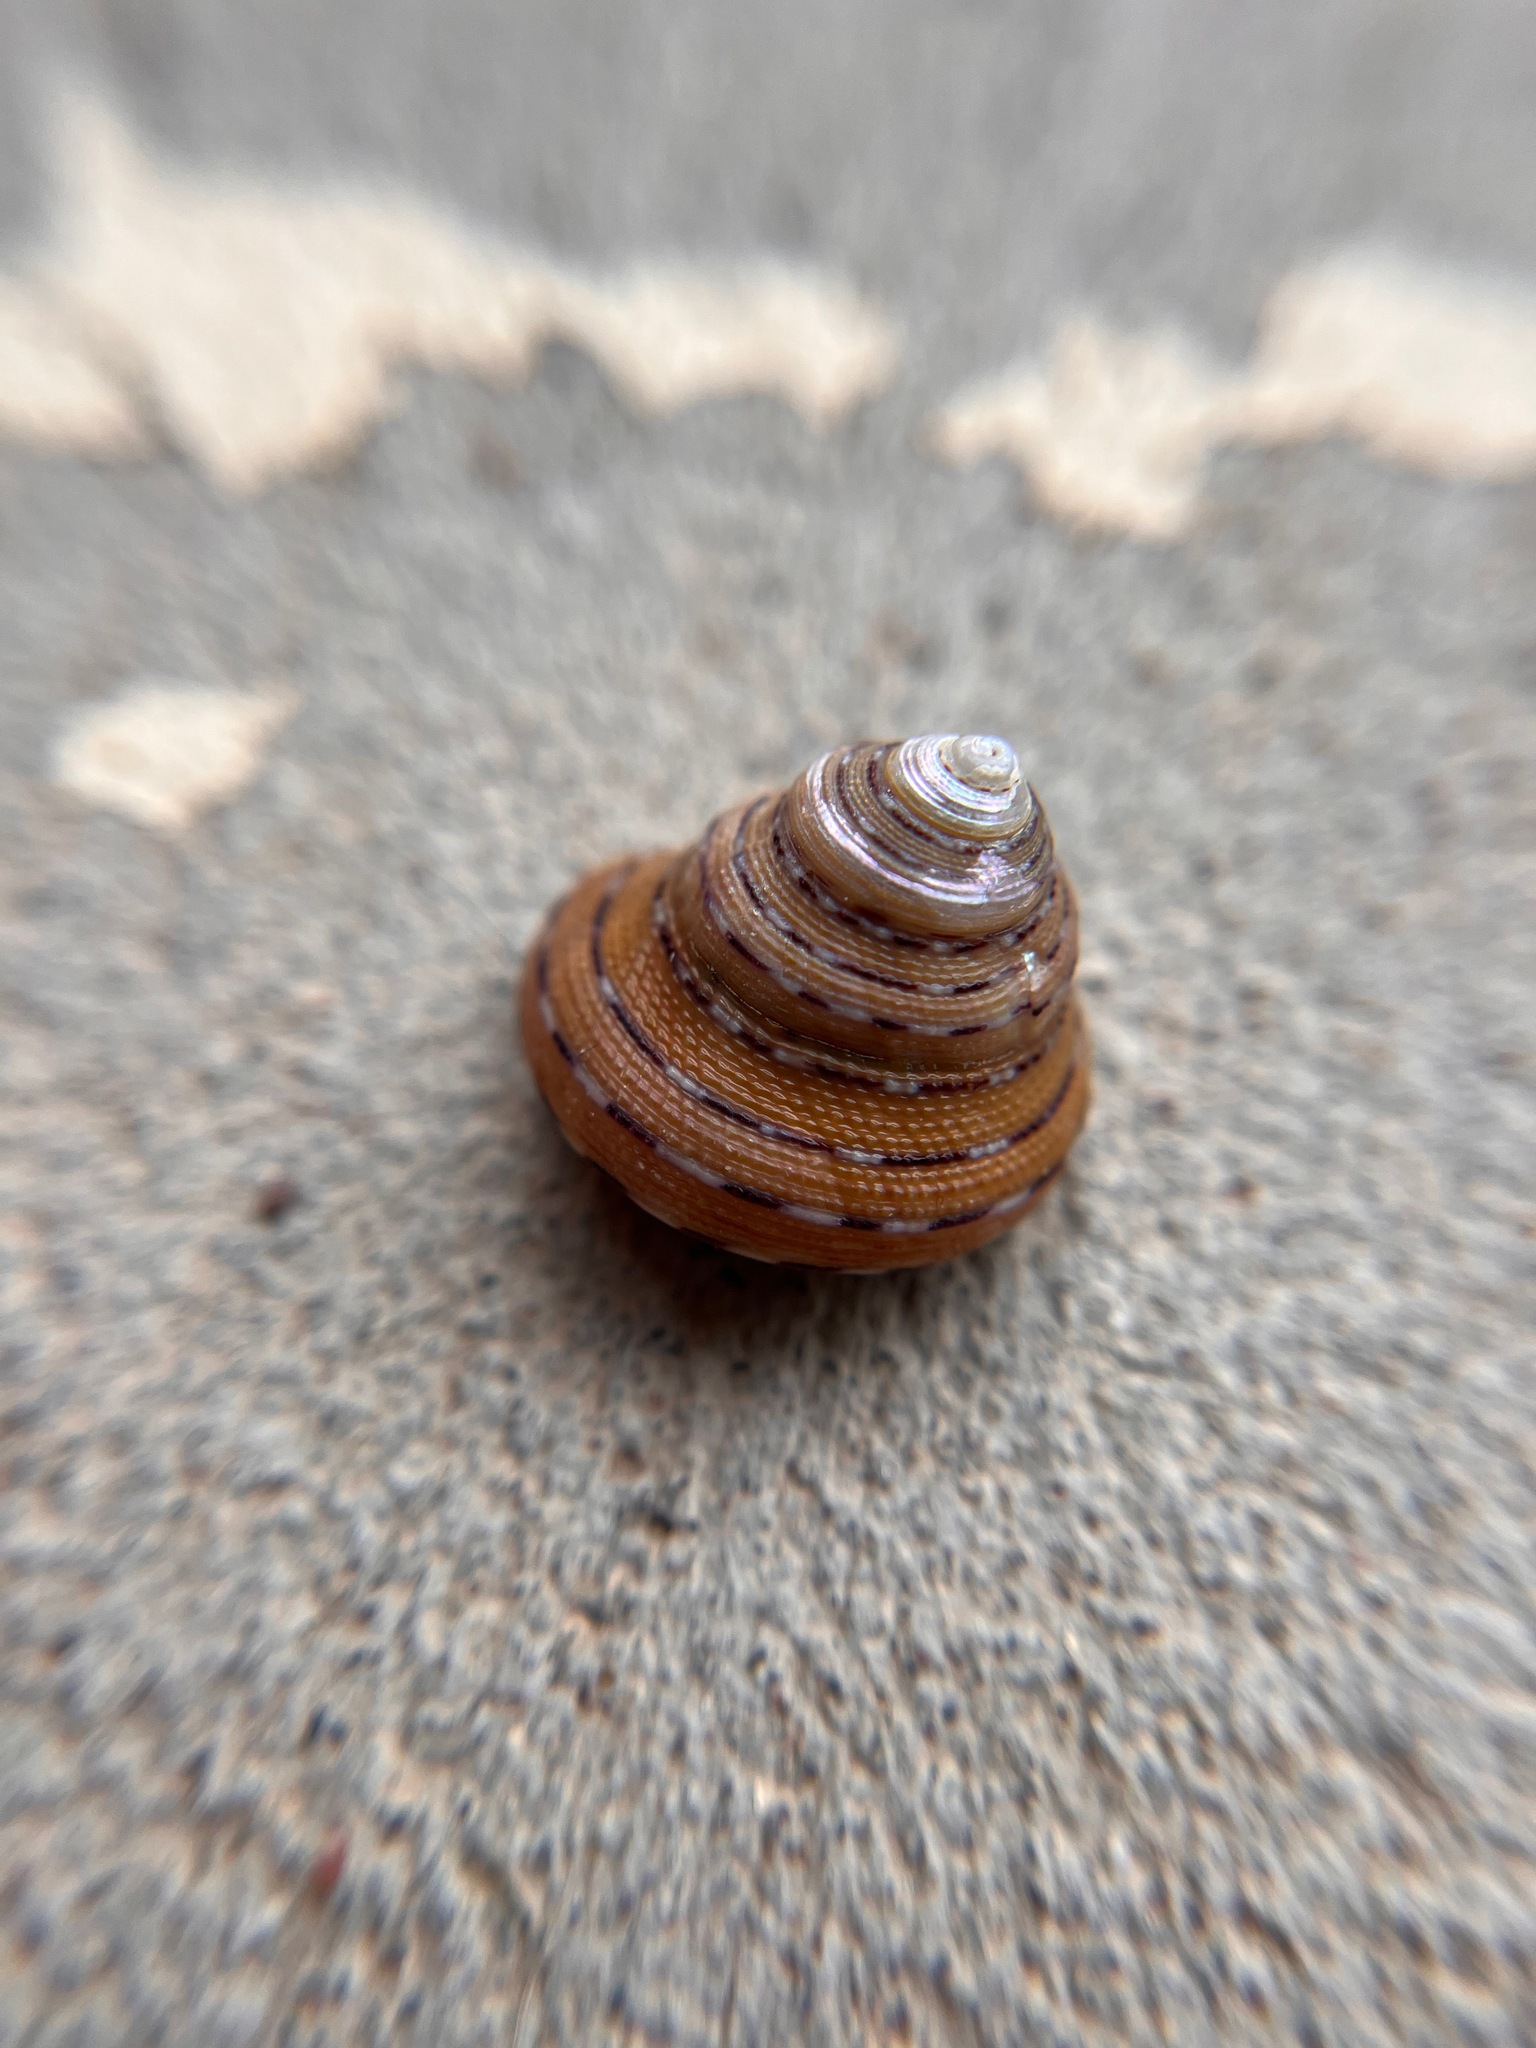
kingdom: Animalia
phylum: Mollusca
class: Gastropoda
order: Trochida
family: Calliostomatidae
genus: Calliostoma
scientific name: Calliostoma tricolor
